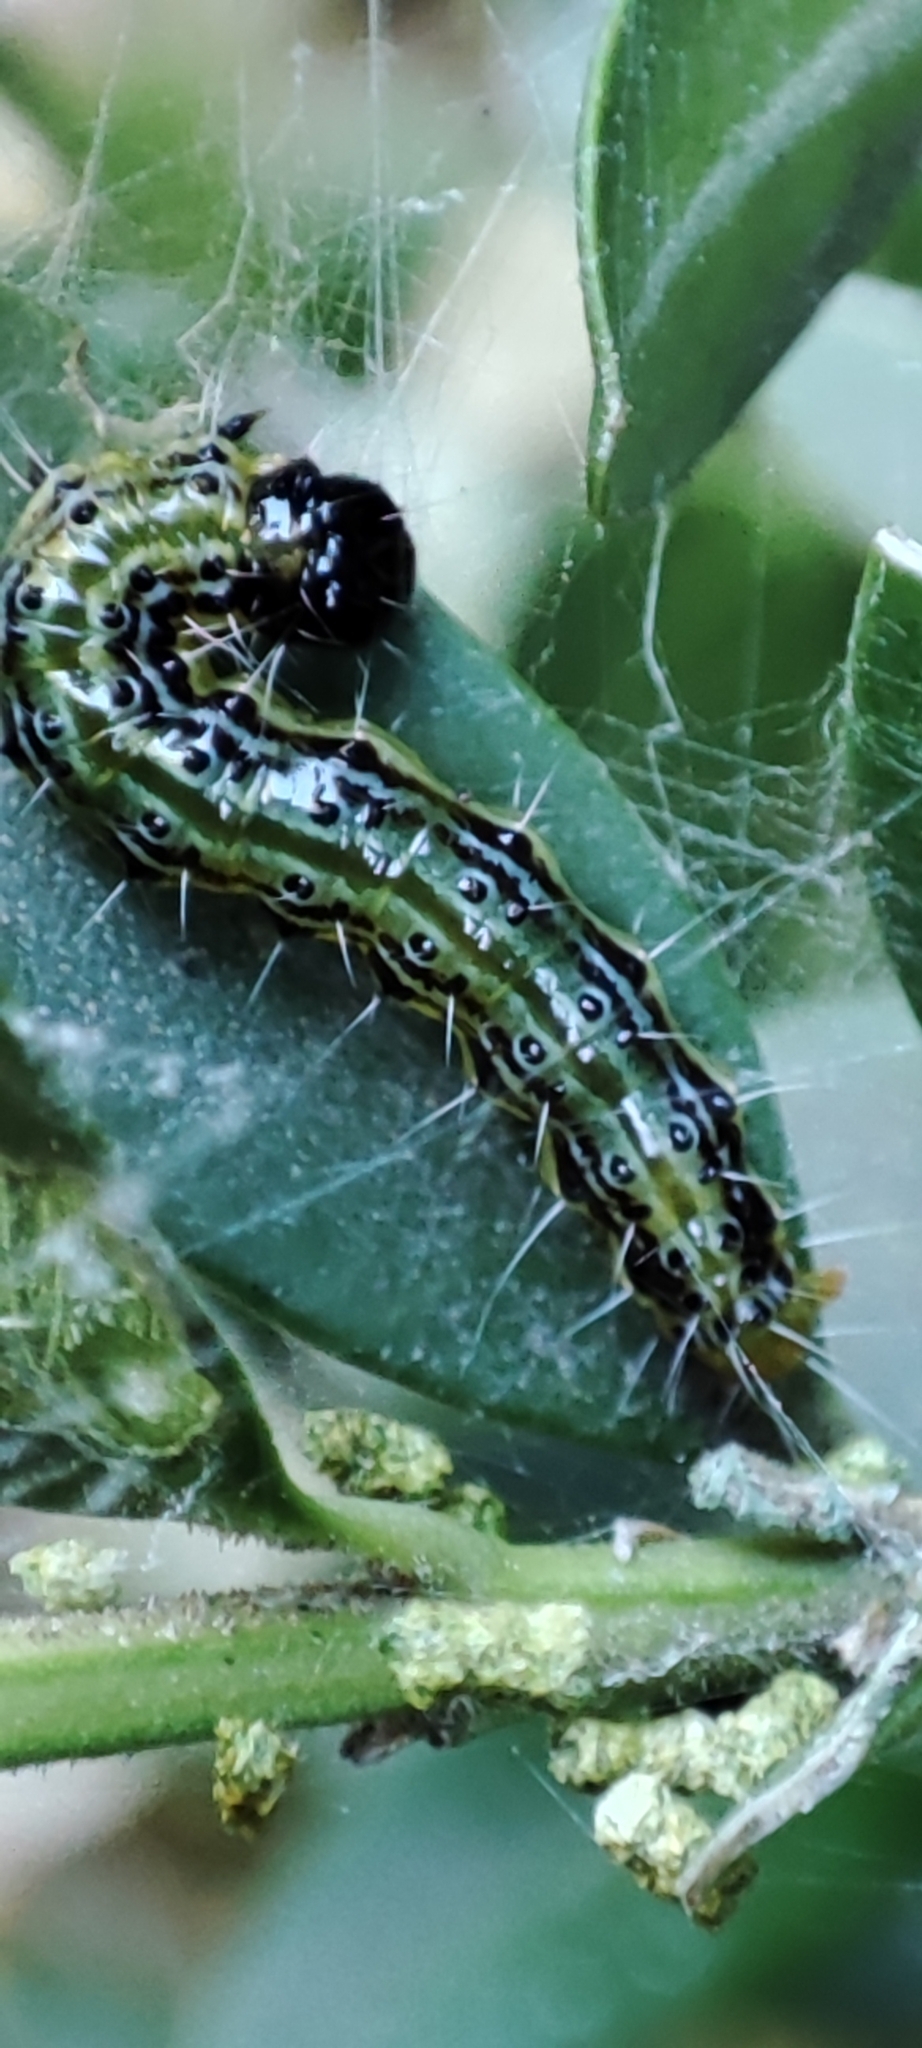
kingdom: Animalia
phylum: Arthropoda
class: Insecta
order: Lepidoptera
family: Crambidae
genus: Cydalima
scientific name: Cydalima perspectalis
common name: Box tree moth
